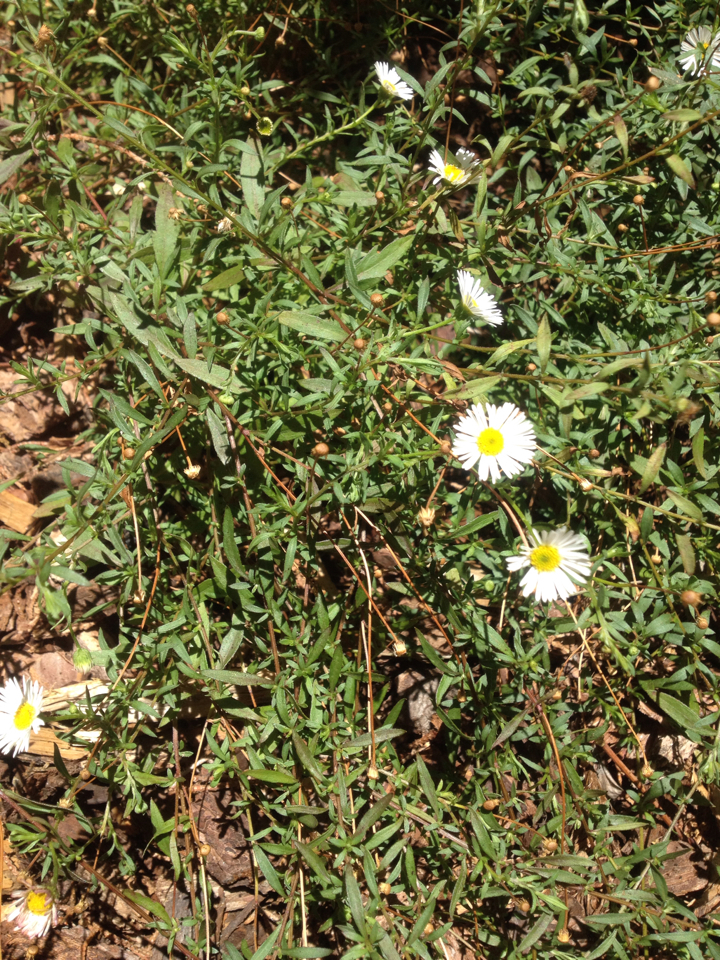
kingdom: Plantae
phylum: Tracheophyta
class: Magnoliopsida
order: Asterales
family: Asteraceae
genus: Erigeron
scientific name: Erigeron karvinskianus
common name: Mexican fleabane
